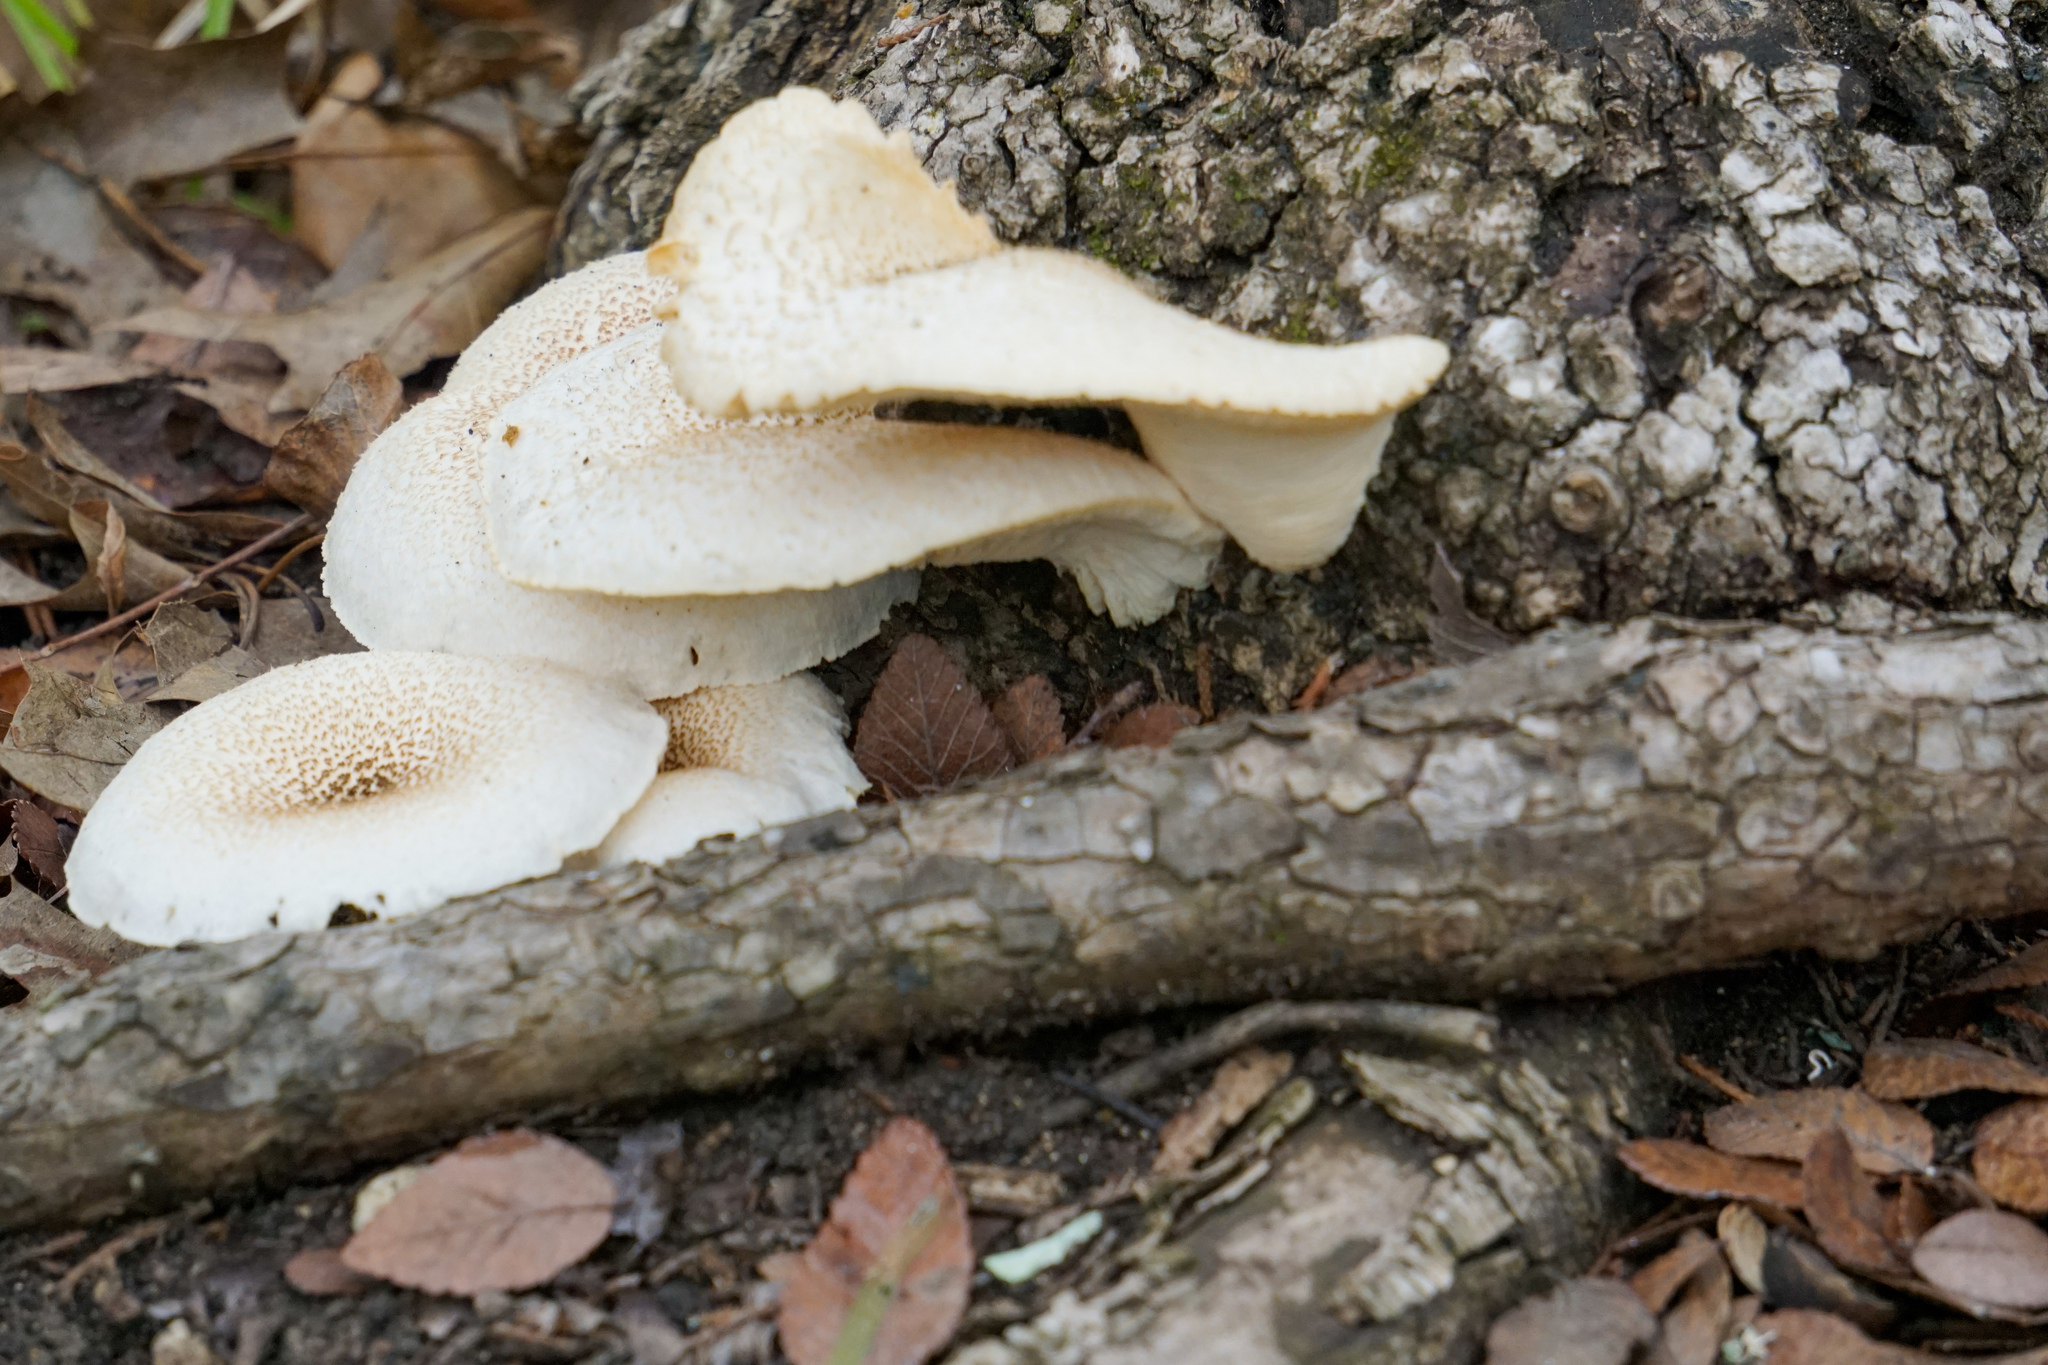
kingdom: Fungi
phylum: Basidiomycota
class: Agaricomycetes
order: Polyporales
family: Polyporaceae
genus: Lentinus
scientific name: Lentinus tigrinus
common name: Tiger sawgill
